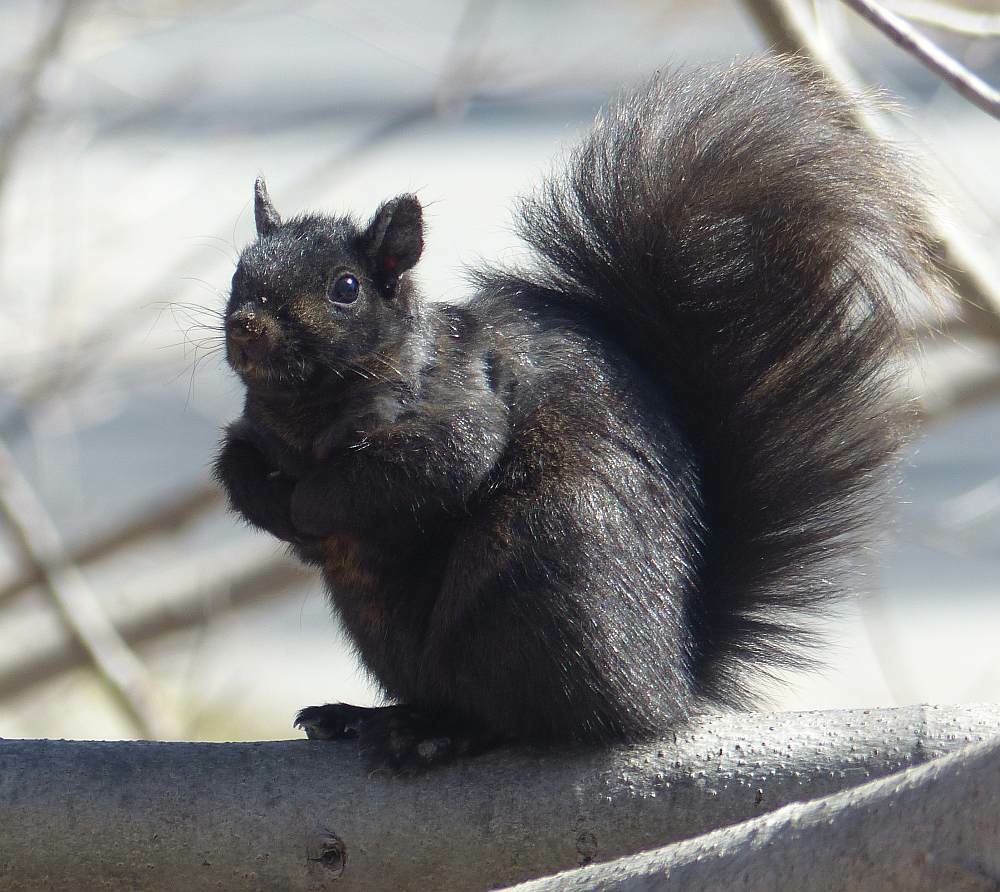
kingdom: Animalia
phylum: Chordata
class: Mammalia
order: Rodentia
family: Sciuridae
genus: Sciurus
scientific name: Sciurus carolinensis
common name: Eastern gray squirrel
